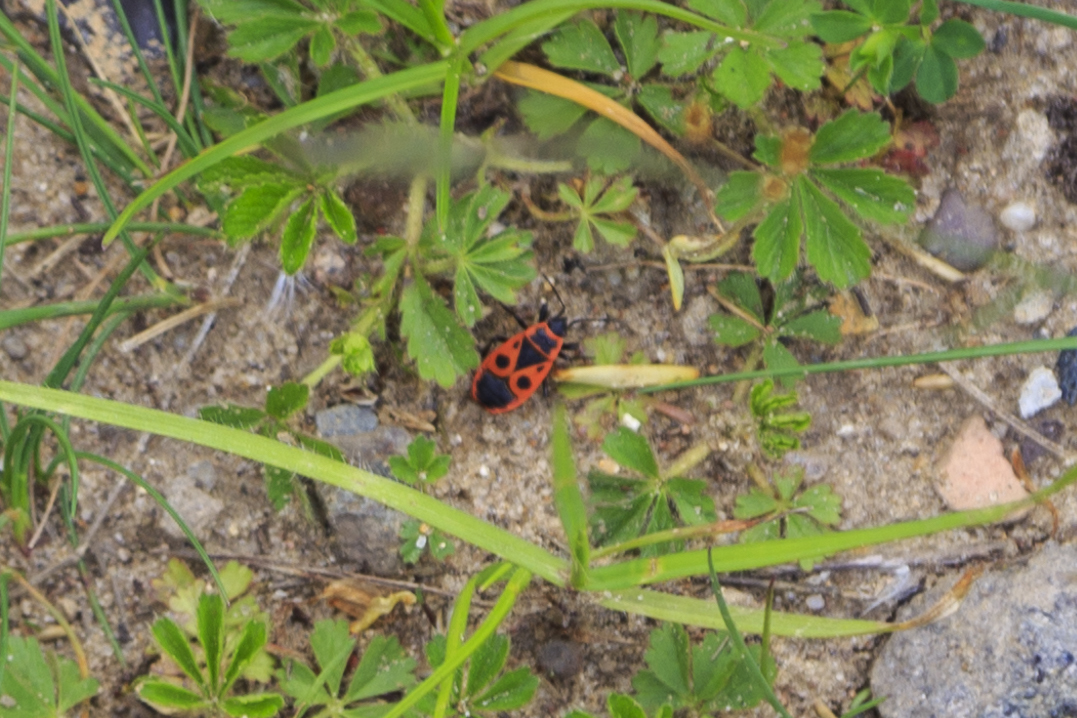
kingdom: Animalia
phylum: Arthropoda
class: Insecta
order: Hemiptera
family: Pyrrhocoridae
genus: Pyrrhocoris
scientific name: Pyrrhocoris apterus
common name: Firebug
